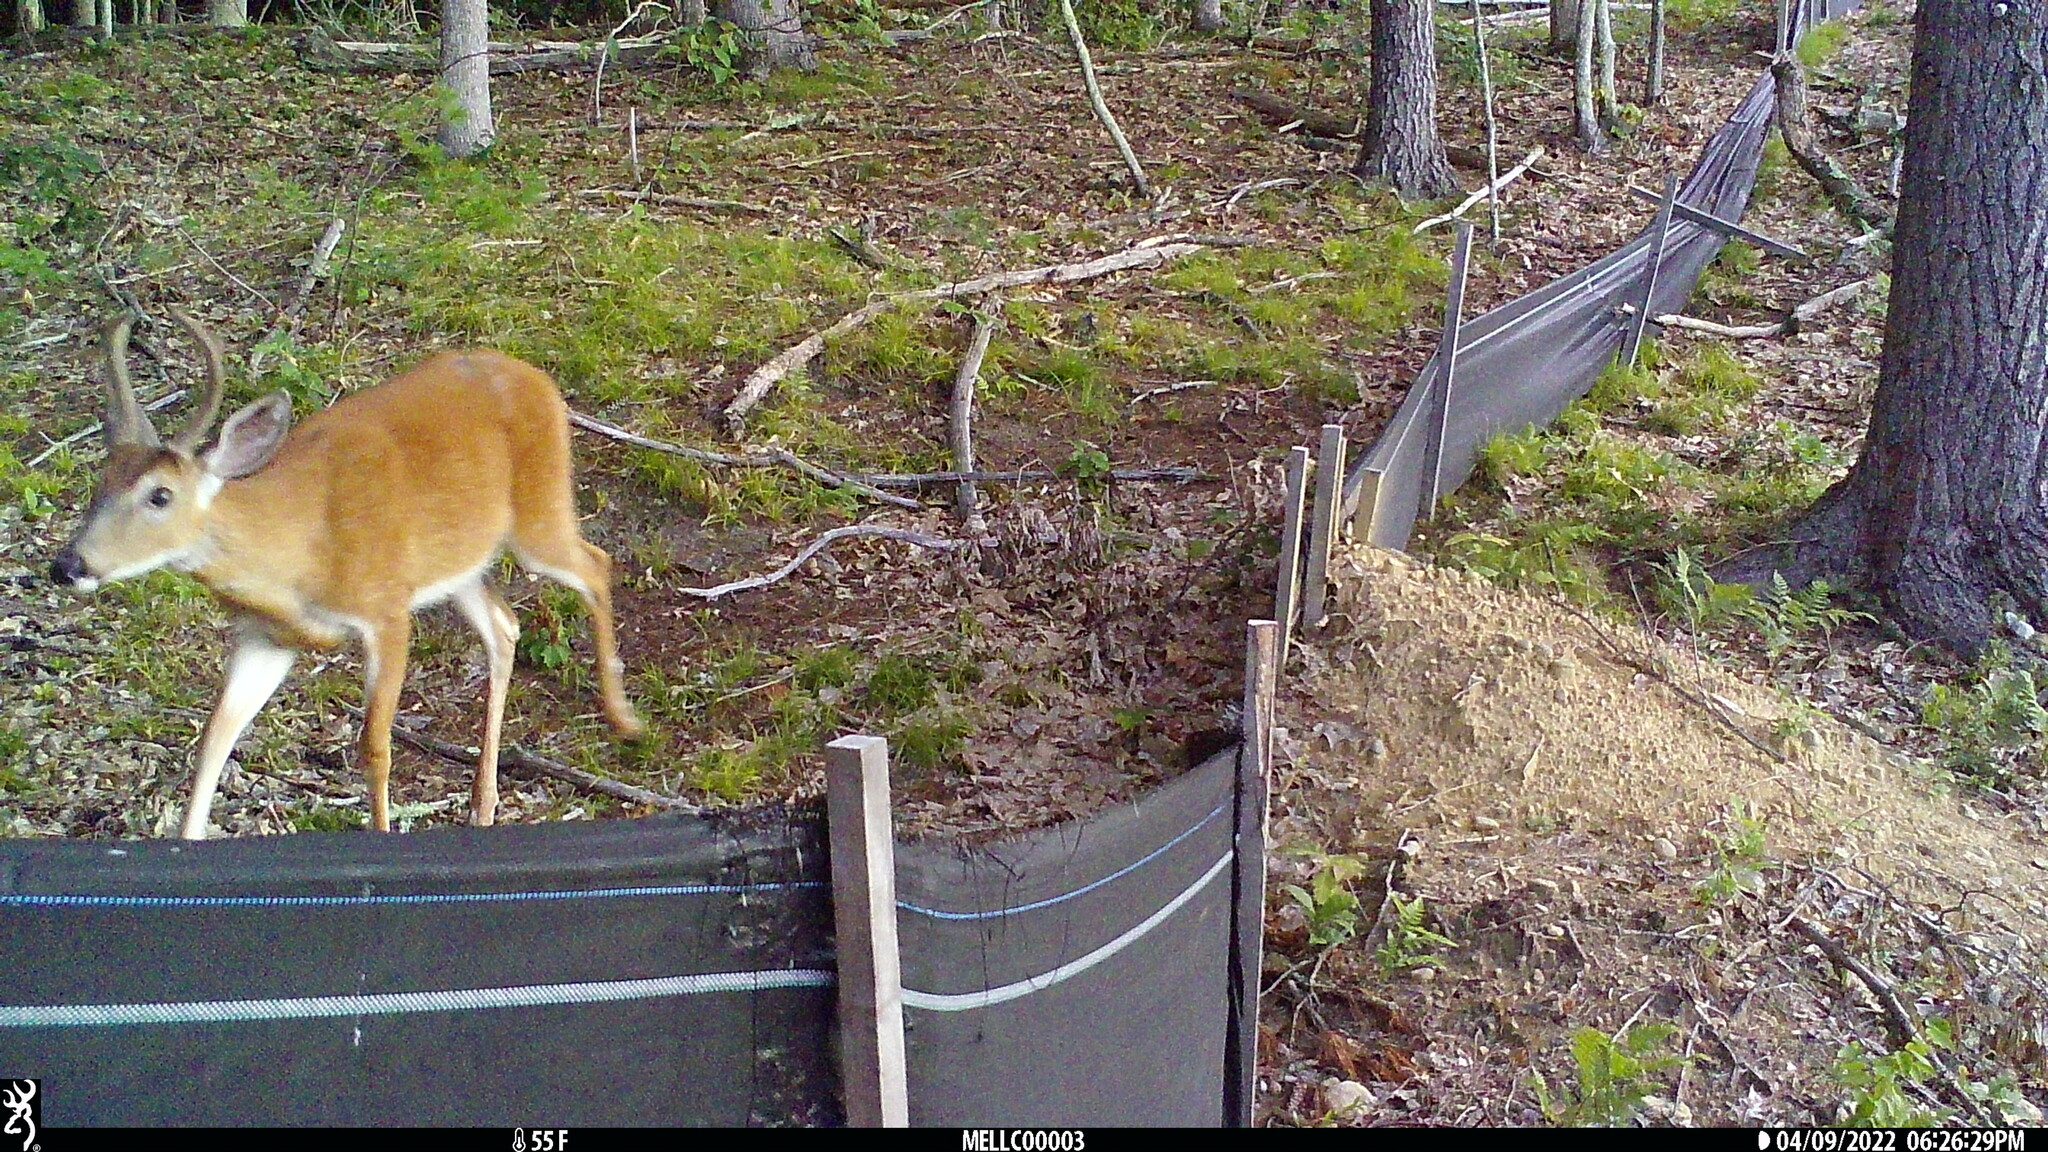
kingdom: Animalia
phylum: Chordata
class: Mammalia
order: Artiodactyla
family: Cervidae
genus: Odocoileus
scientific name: Odocoileus virginianus
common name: White-tailed deer
